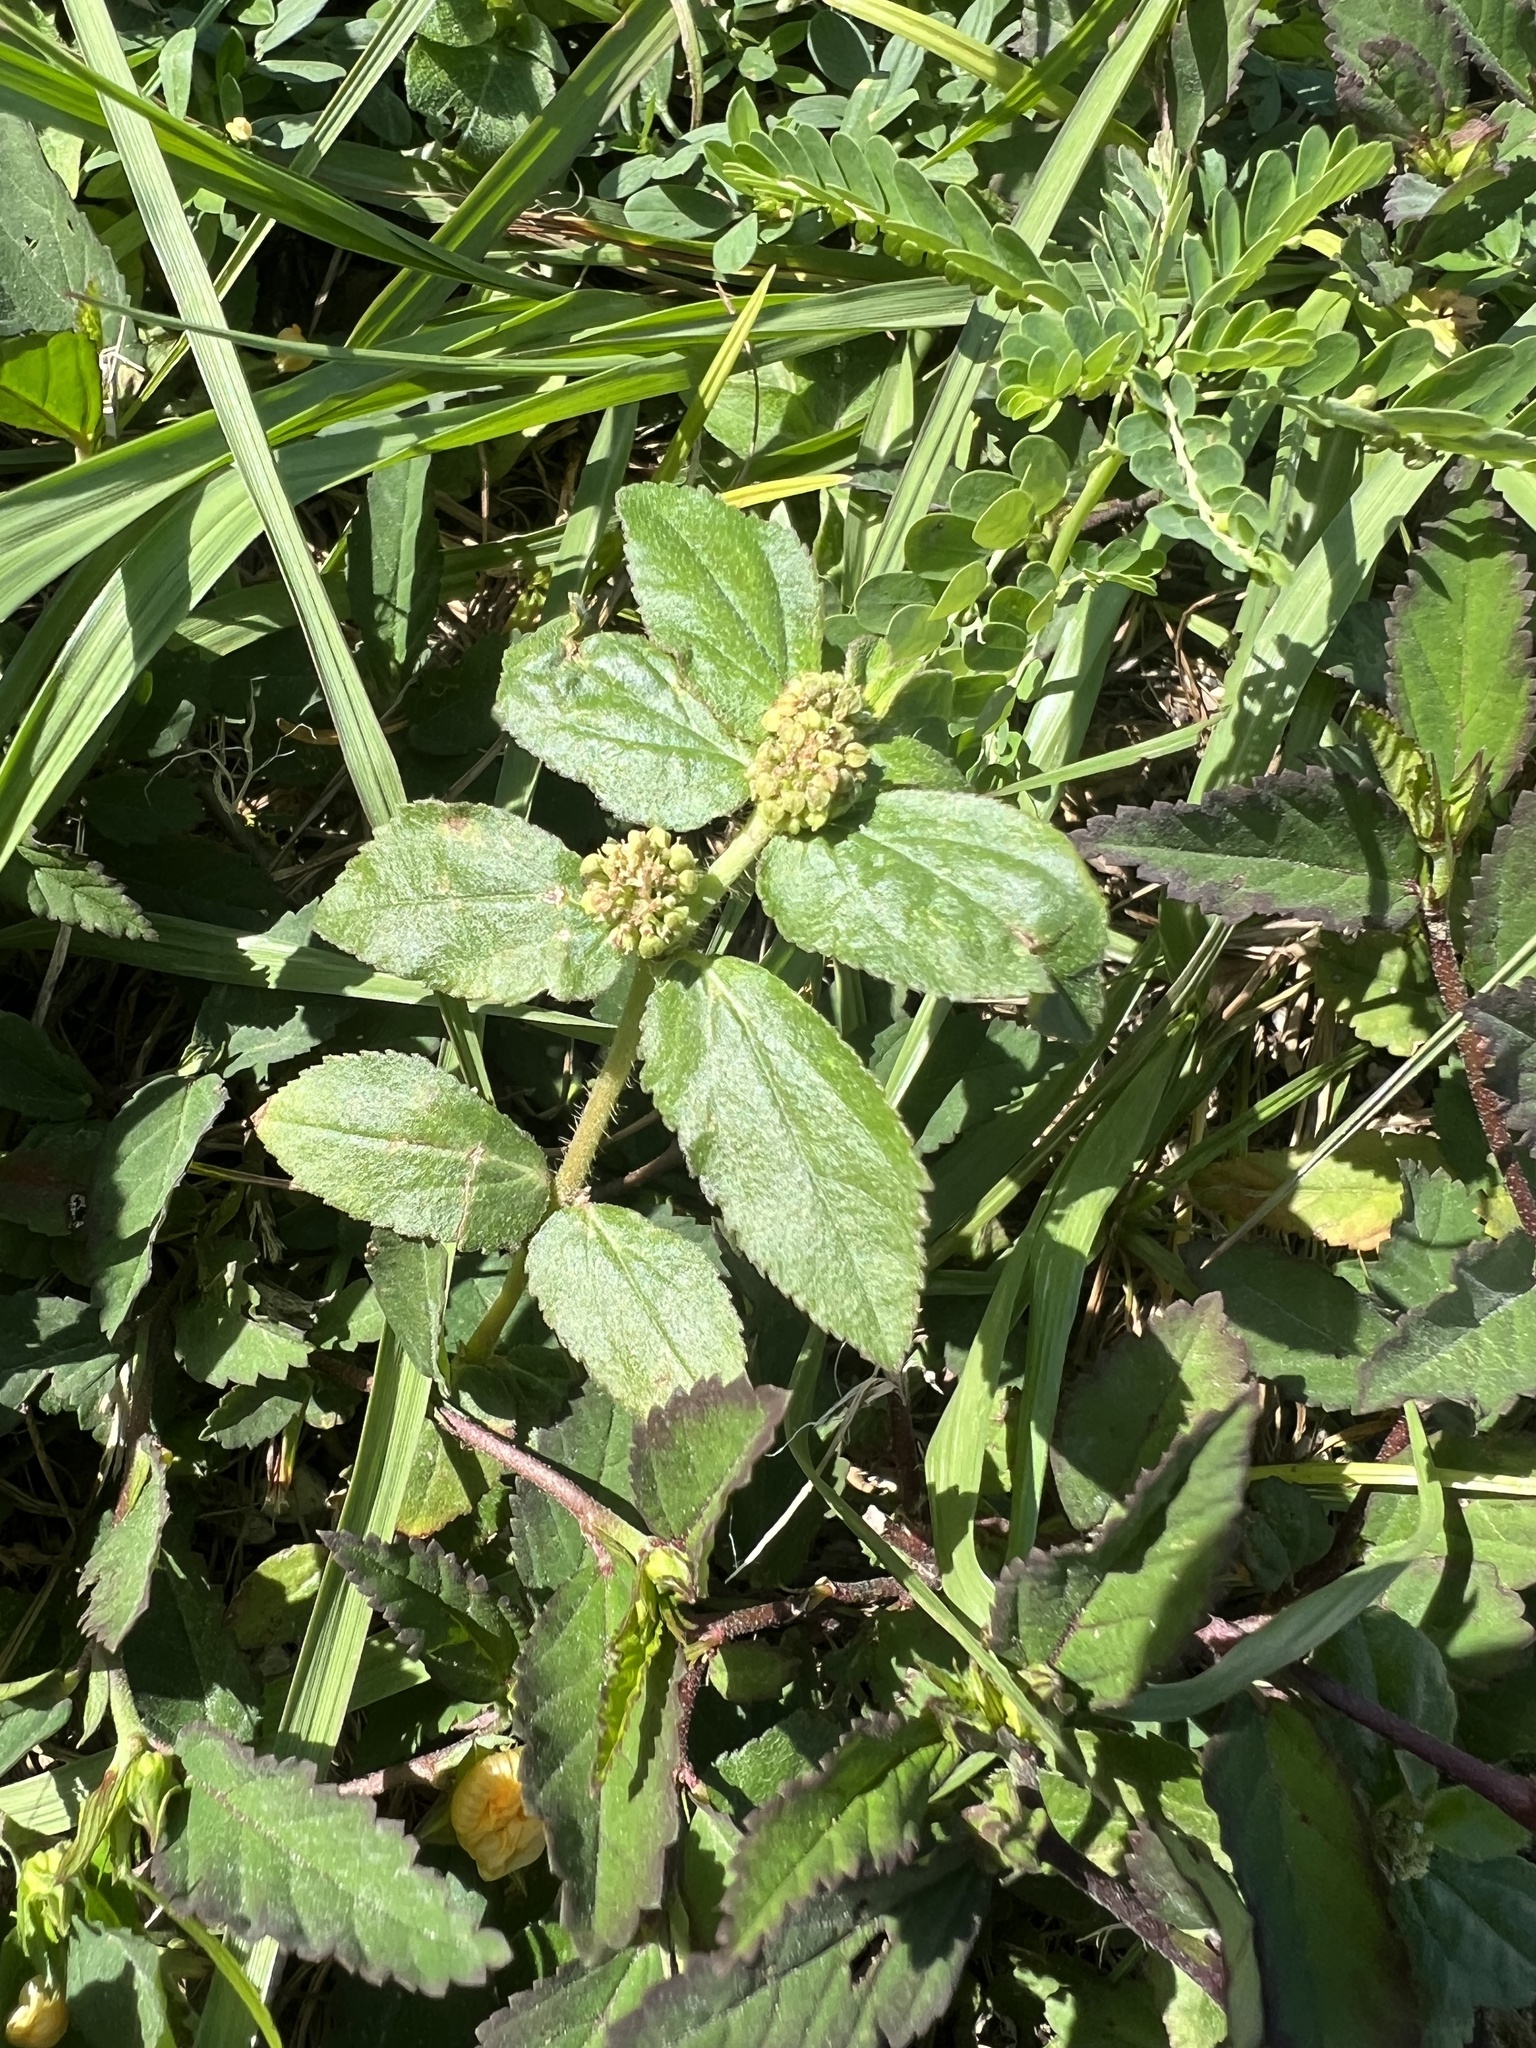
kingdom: Plantae
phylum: Tracheophyta
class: Magnoliopsida
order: Malpighiales
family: Euphorbiaceae
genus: Euphorbia
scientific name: Euphorbia hirta
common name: Pillpod sandmat
